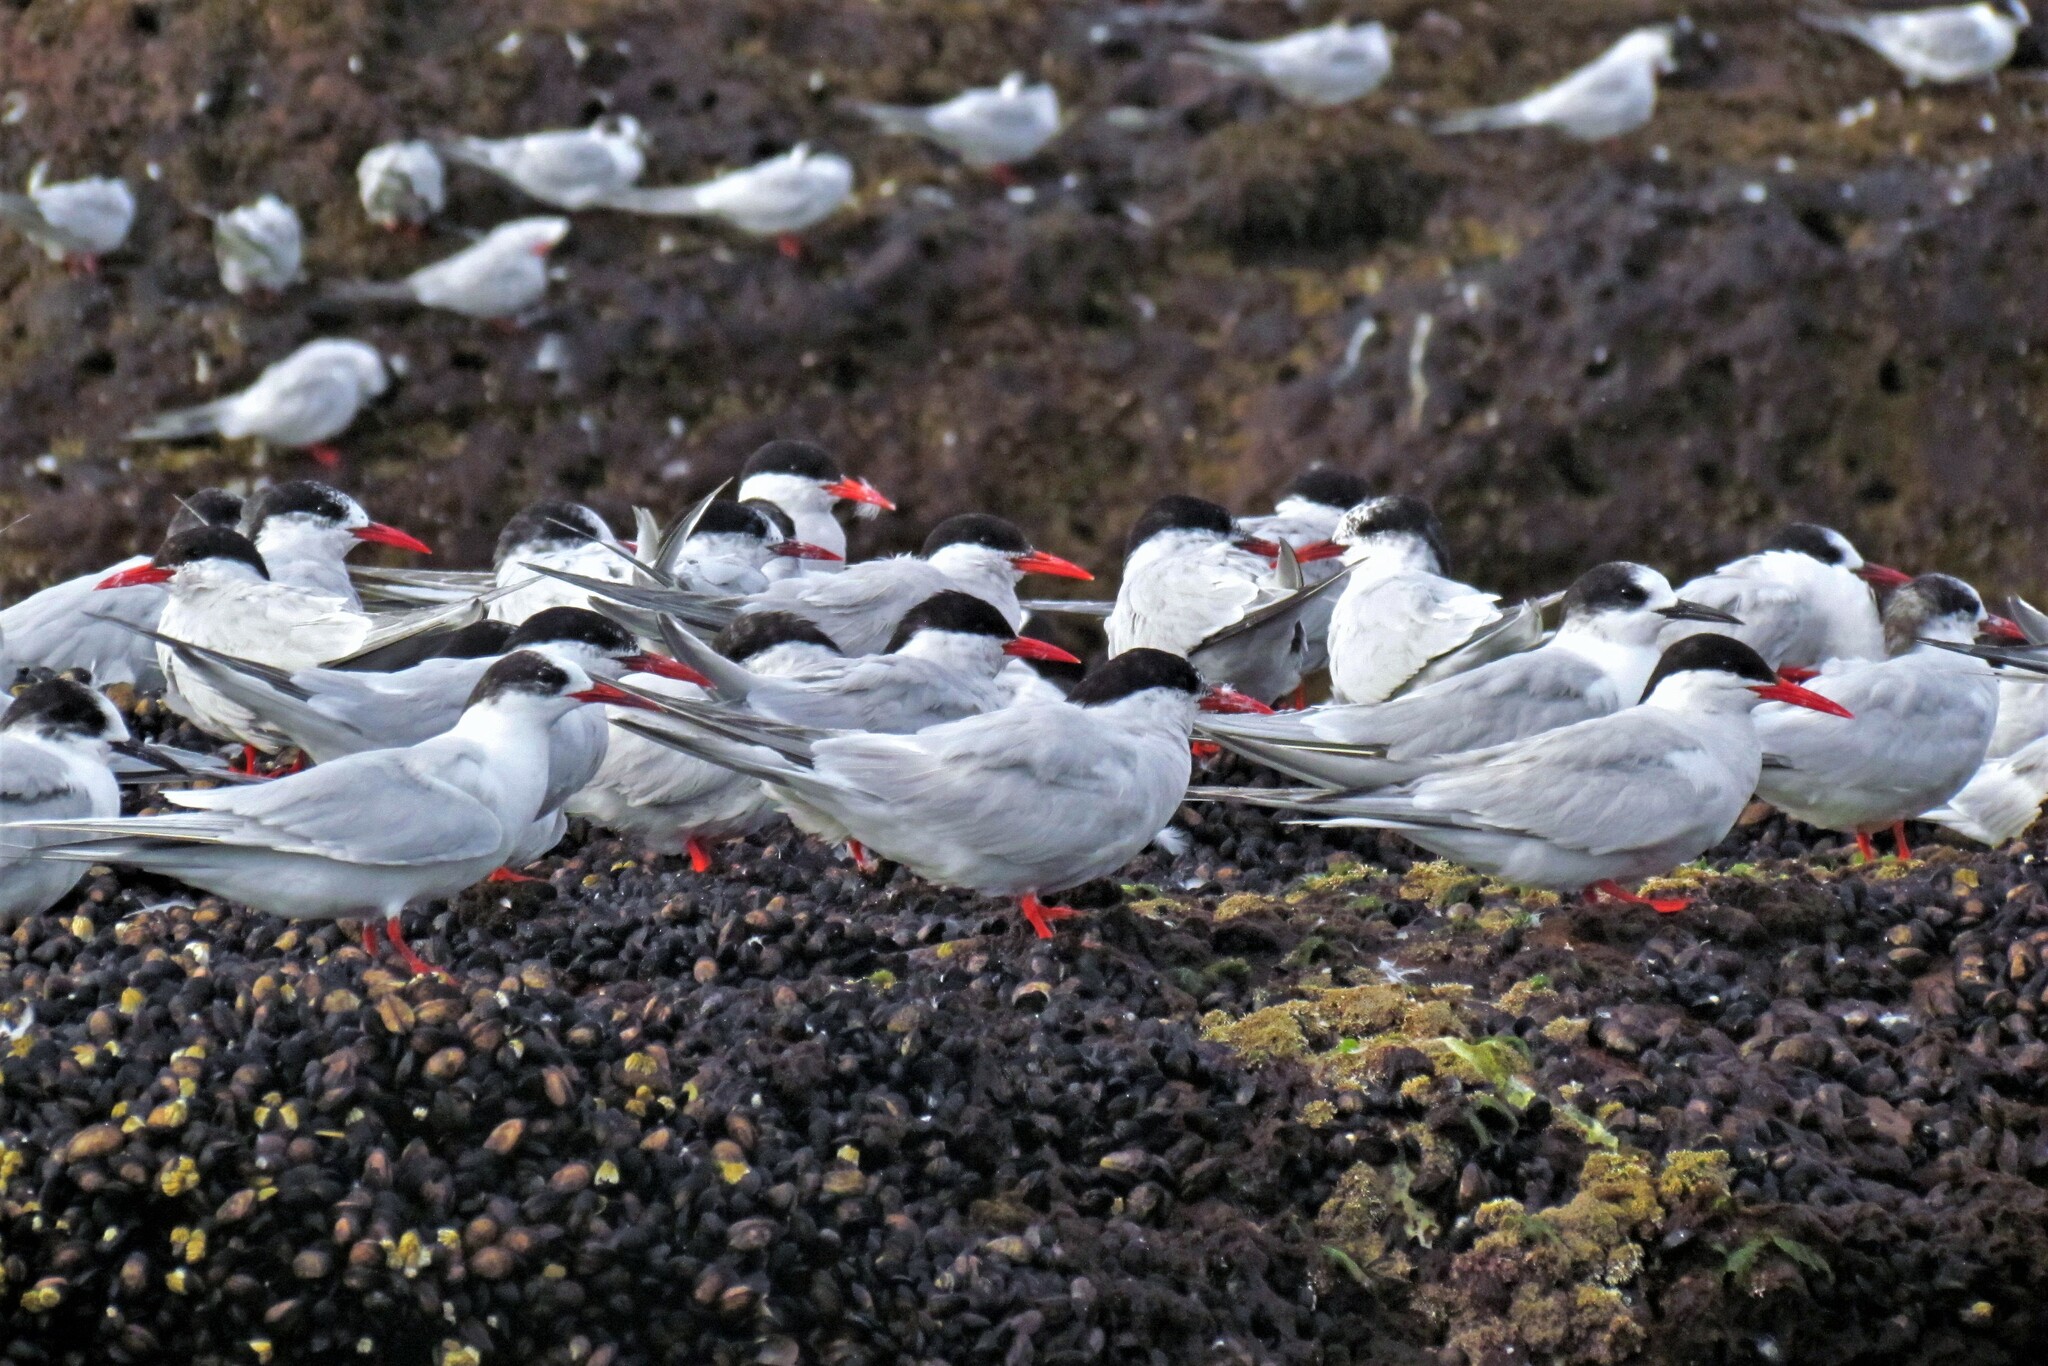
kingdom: Animalia
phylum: Chordata
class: Aves
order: Charadriiformes
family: Laridae
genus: Sterna
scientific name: Sterna hirundinacea
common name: South american tern
